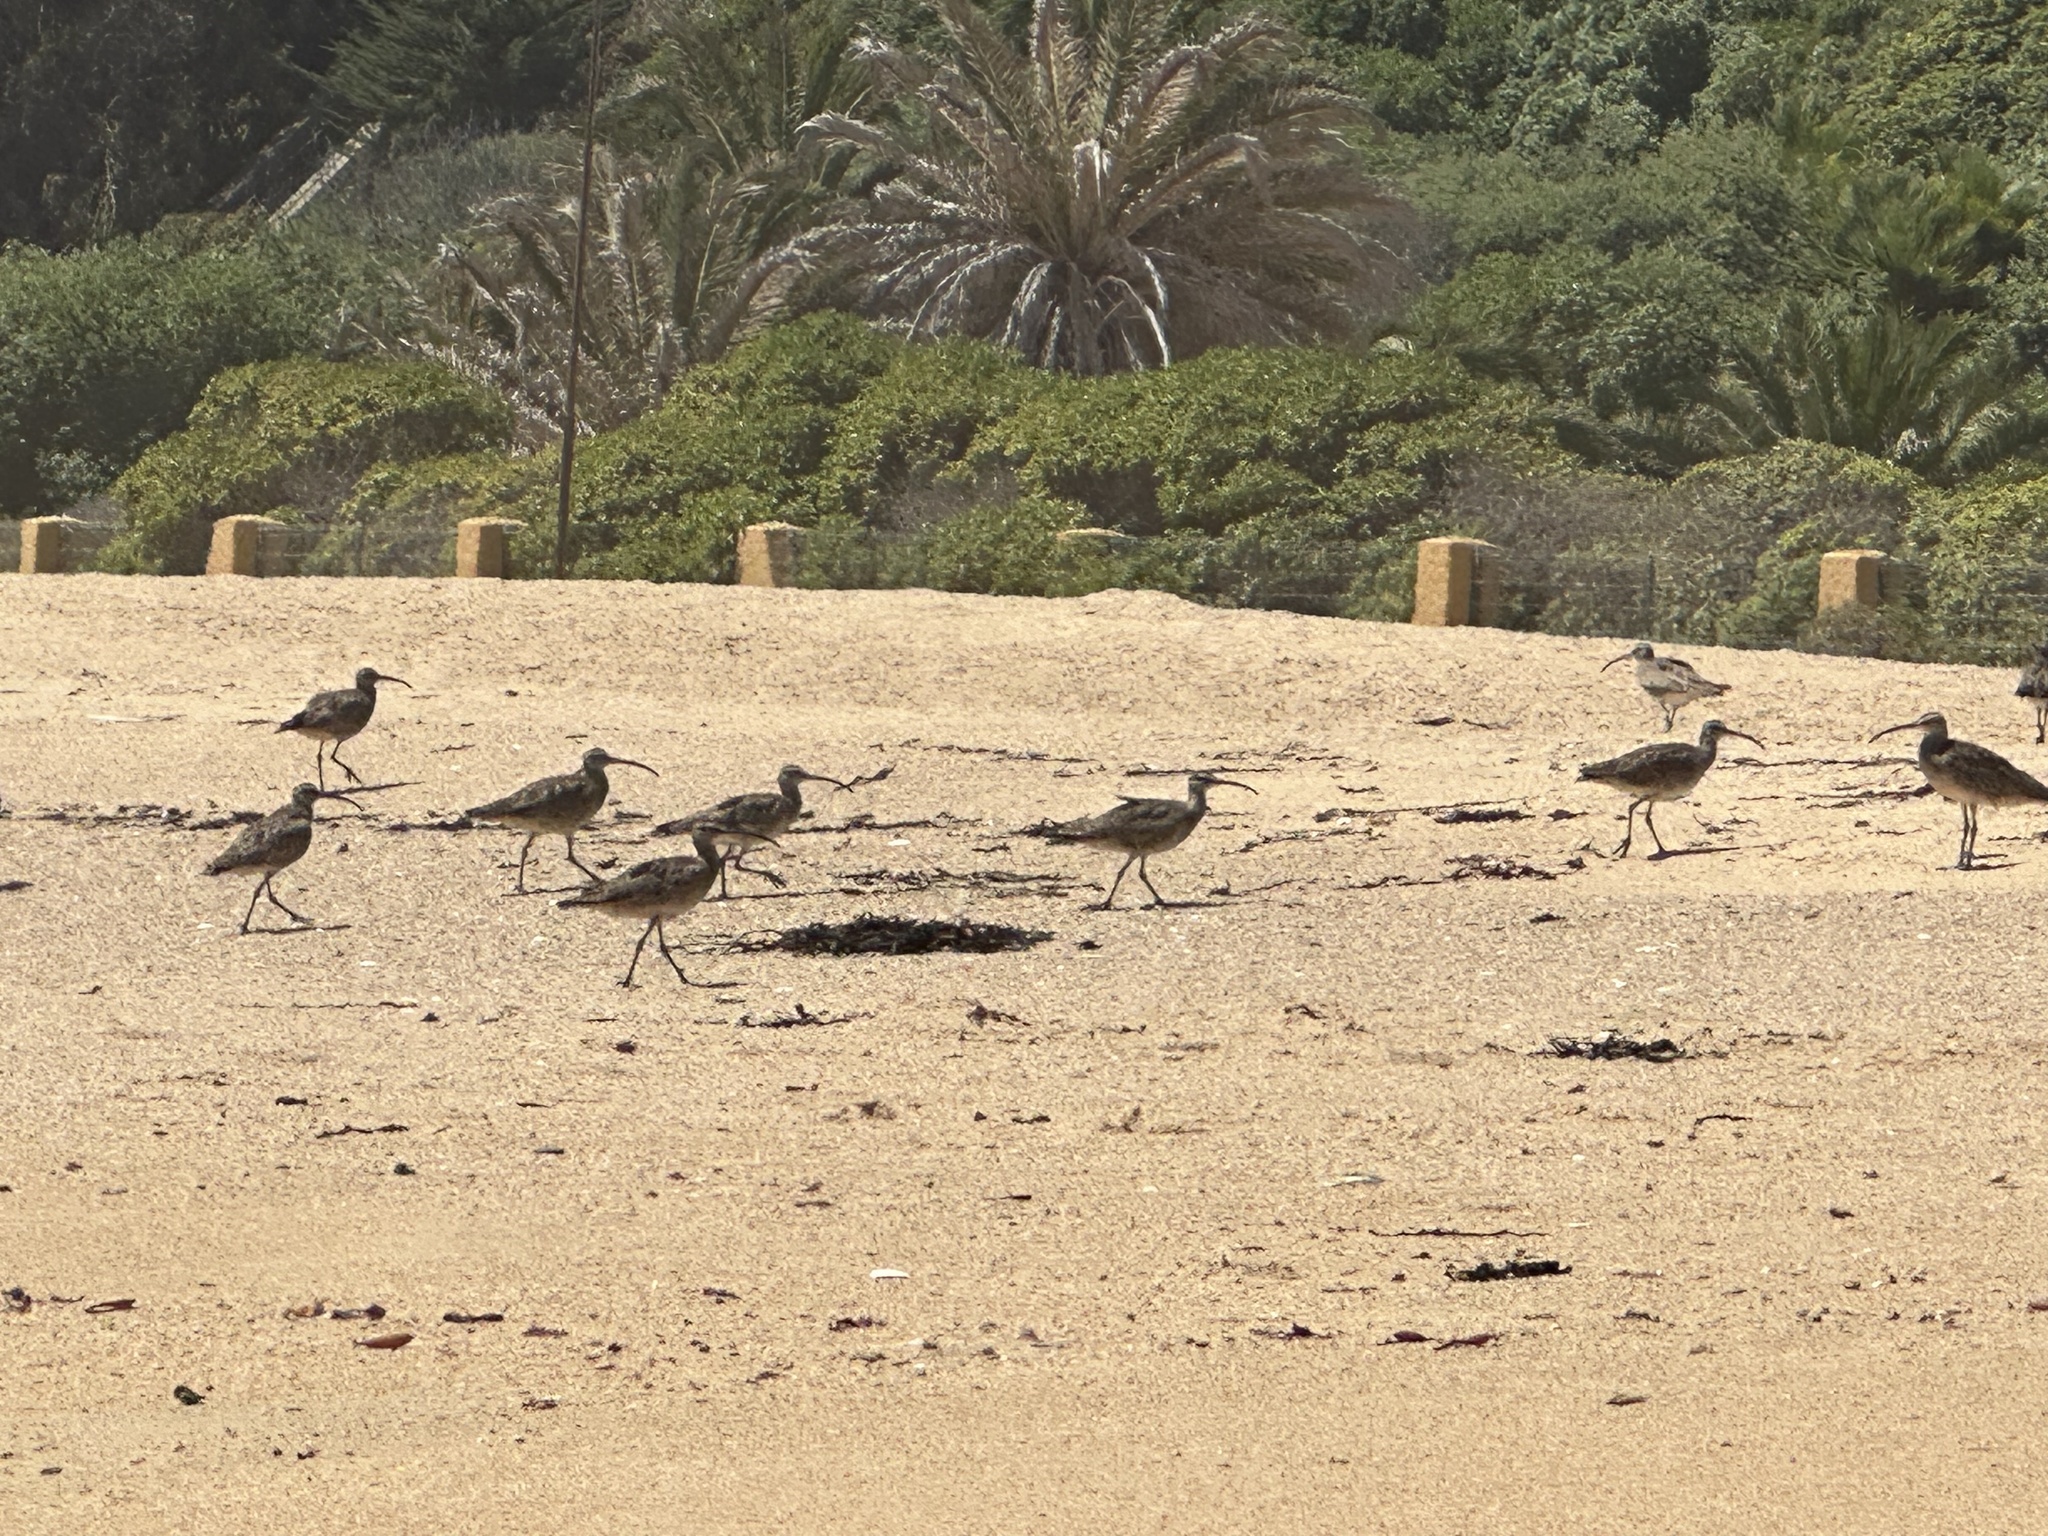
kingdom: Animalia
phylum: Chordata
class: Aves
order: Charadriiformes
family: Scolopacidae
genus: Numenius
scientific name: Numenius phaeopus
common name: Whimbrel
